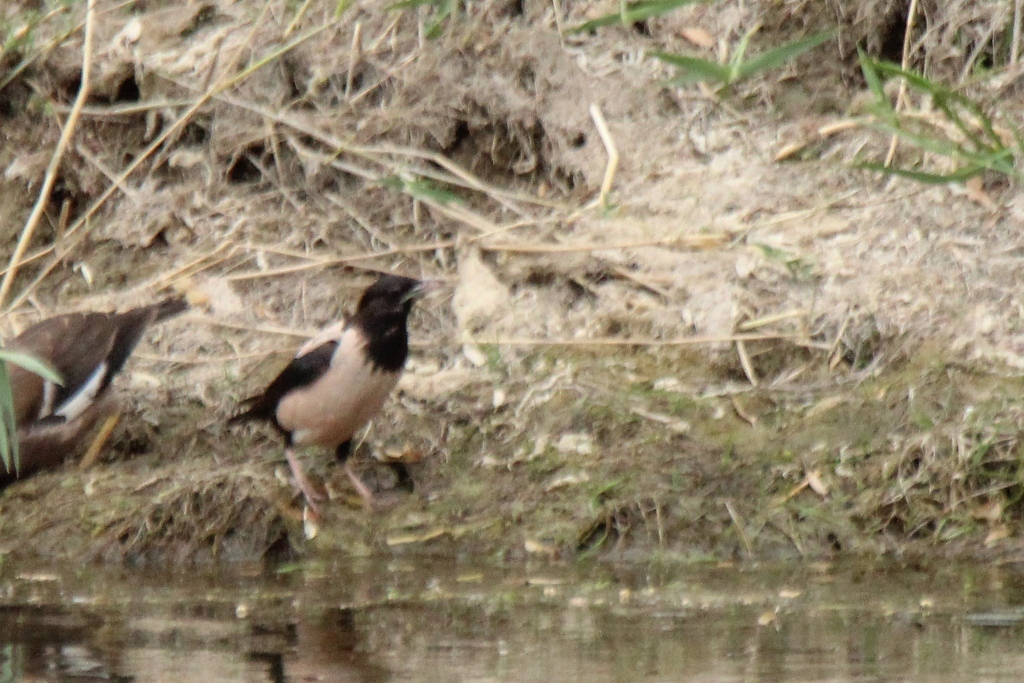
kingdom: Animalia
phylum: Chordata
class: Aves
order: Passeriformes
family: Sturnidae
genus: Pastor
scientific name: Pastor roseus
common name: Rosy starling
